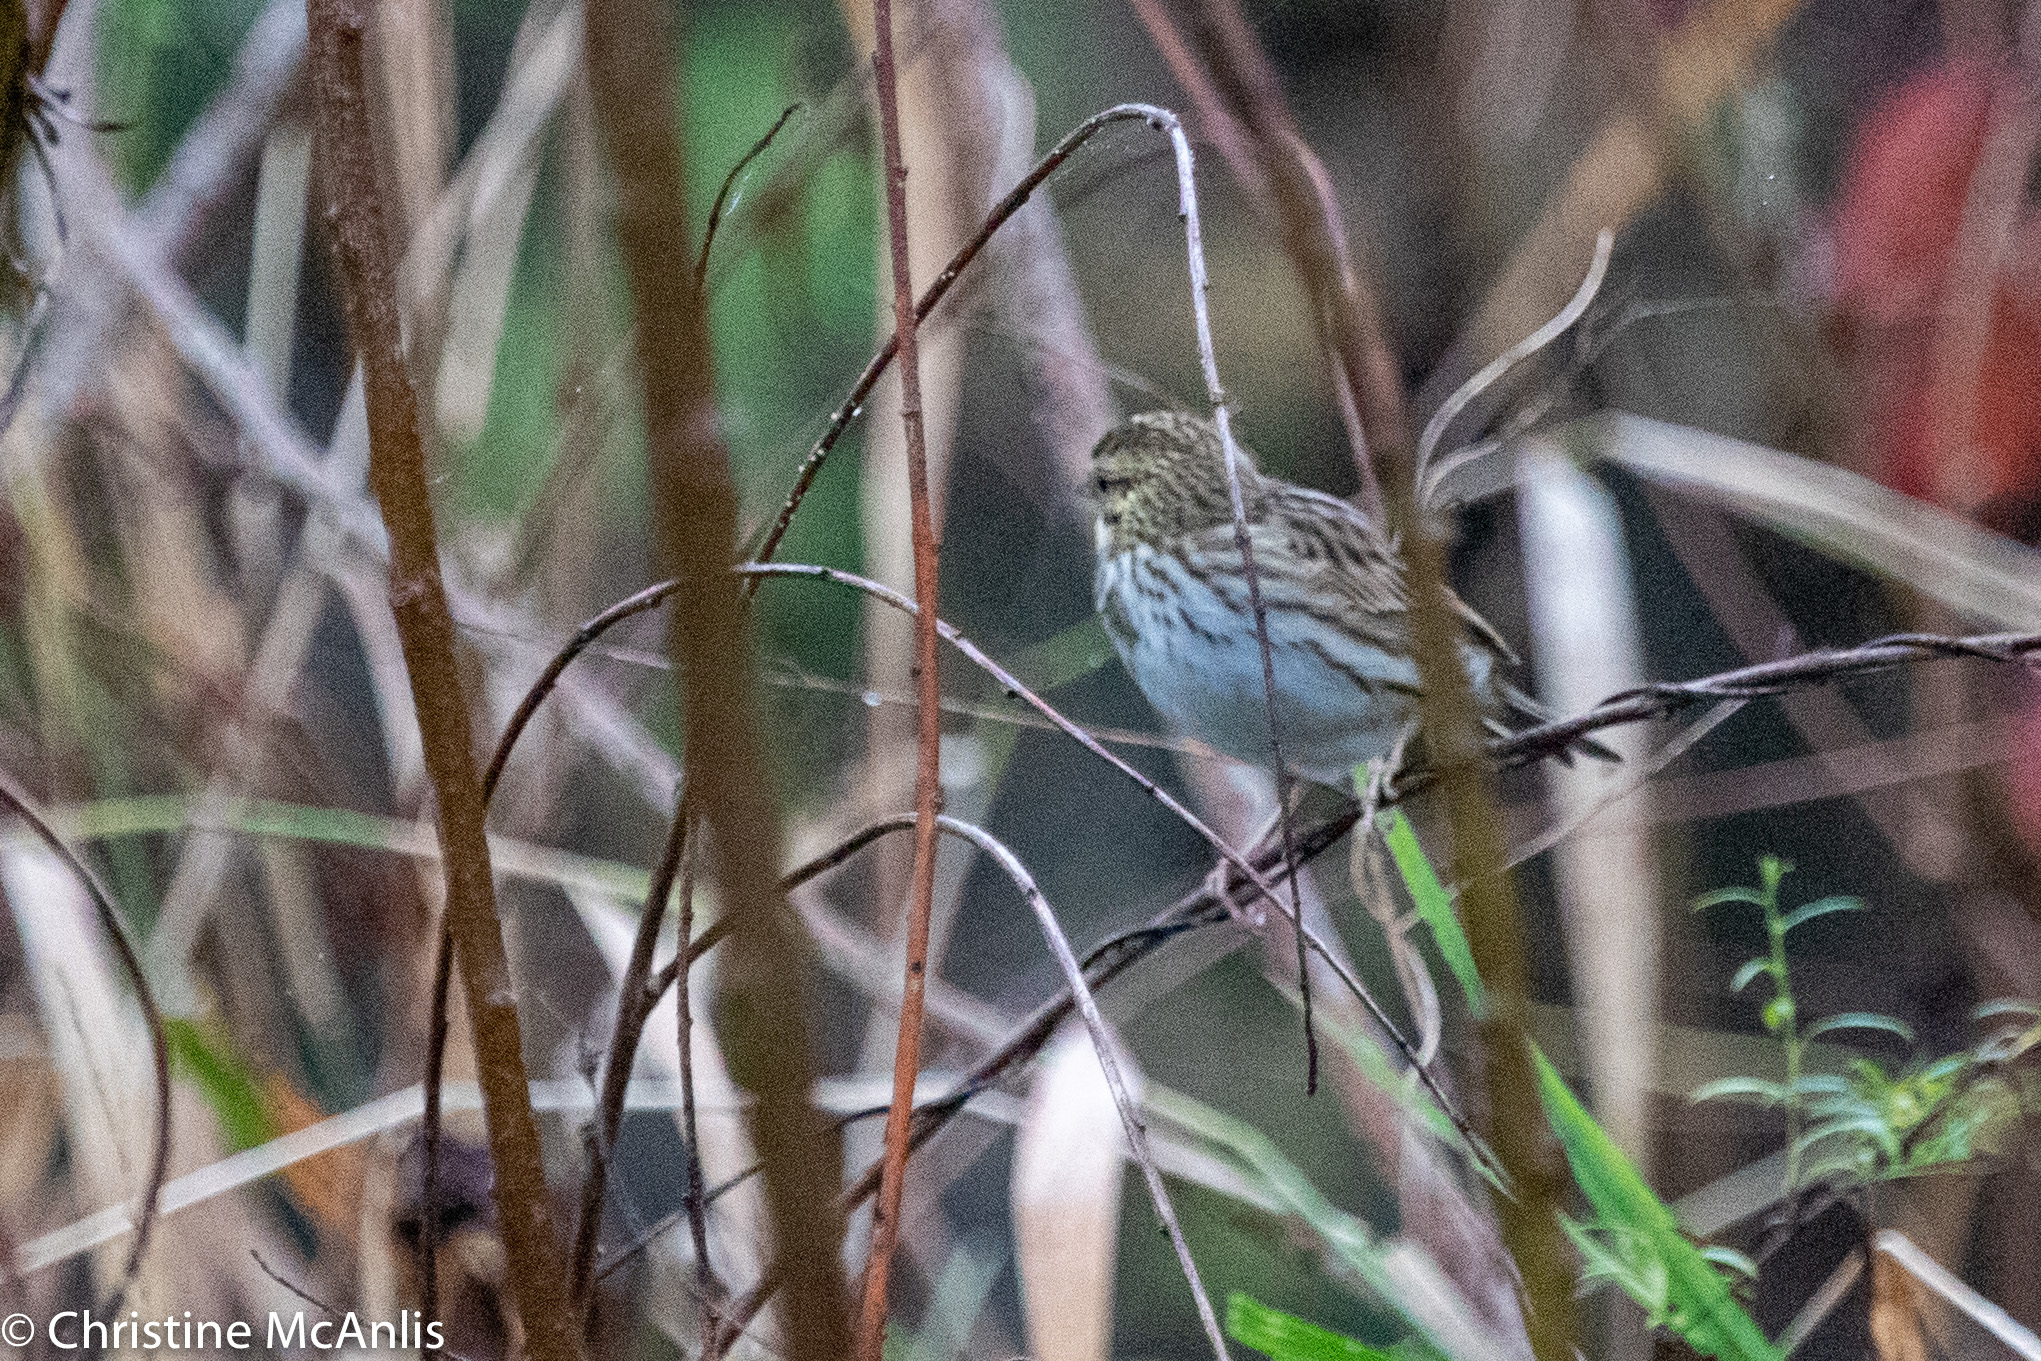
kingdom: Animalia
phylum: Chordata
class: Aves
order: Passeriformes
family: Passerellidae
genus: Passerculus
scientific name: Passerculus sandwichensis
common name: Savannah sparrow
